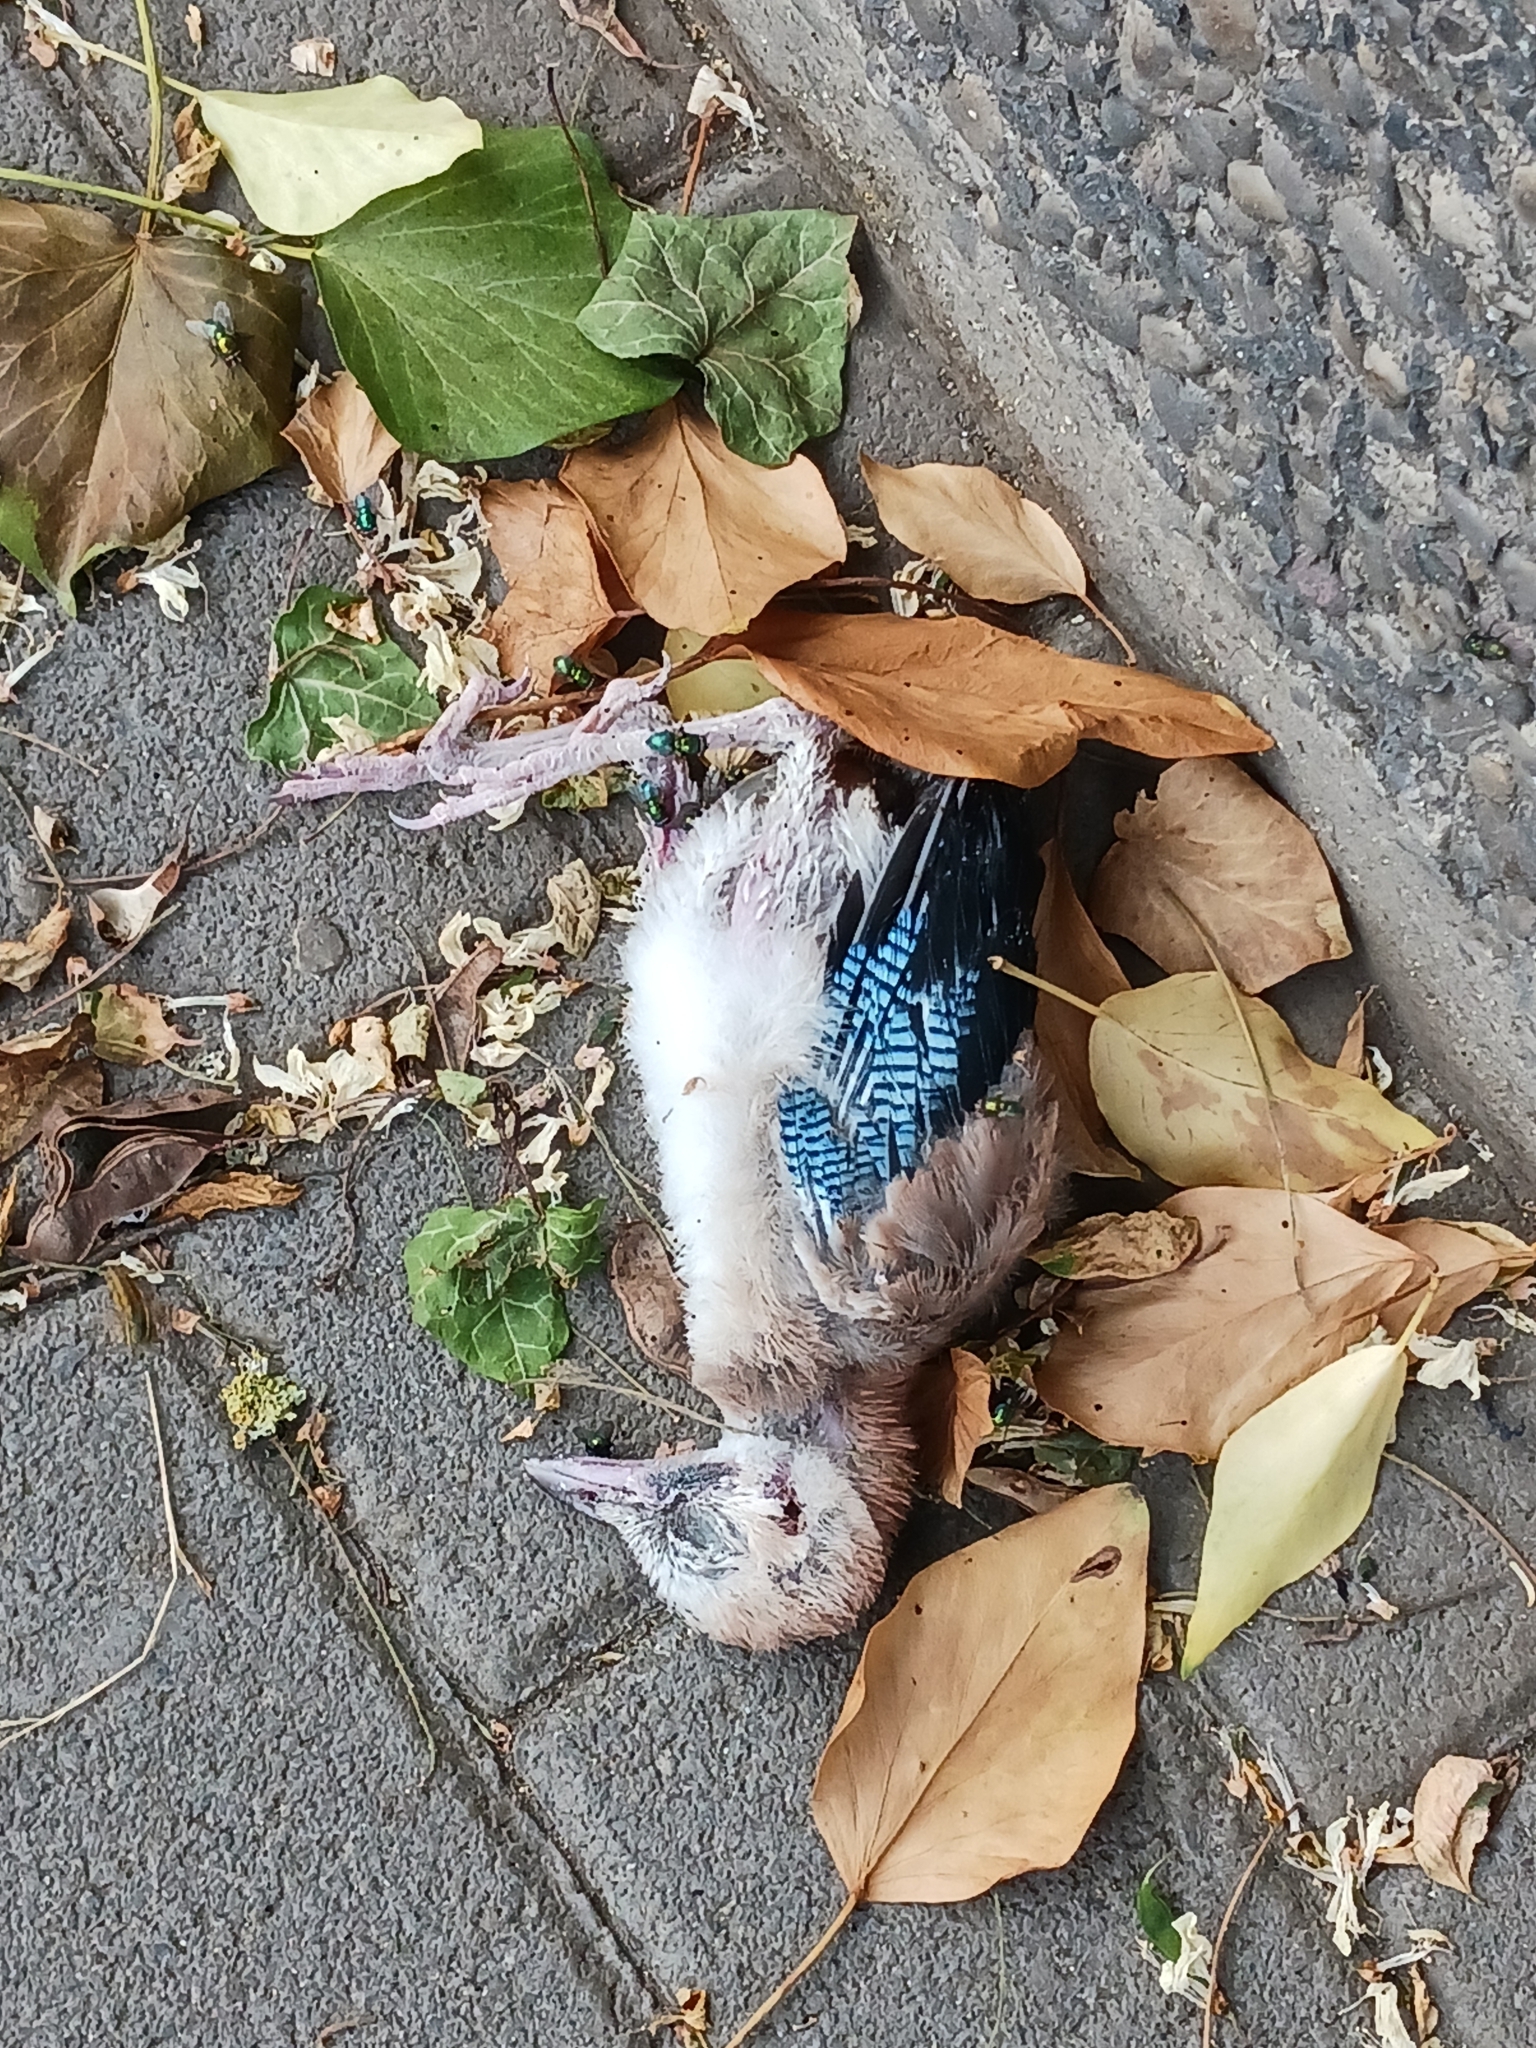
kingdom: Animalia
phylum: Chordata
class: Aves
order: Passeriformes
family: Corvidae
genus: Garrulus
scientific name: Garrulus glandarius
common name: Eurasian jay
